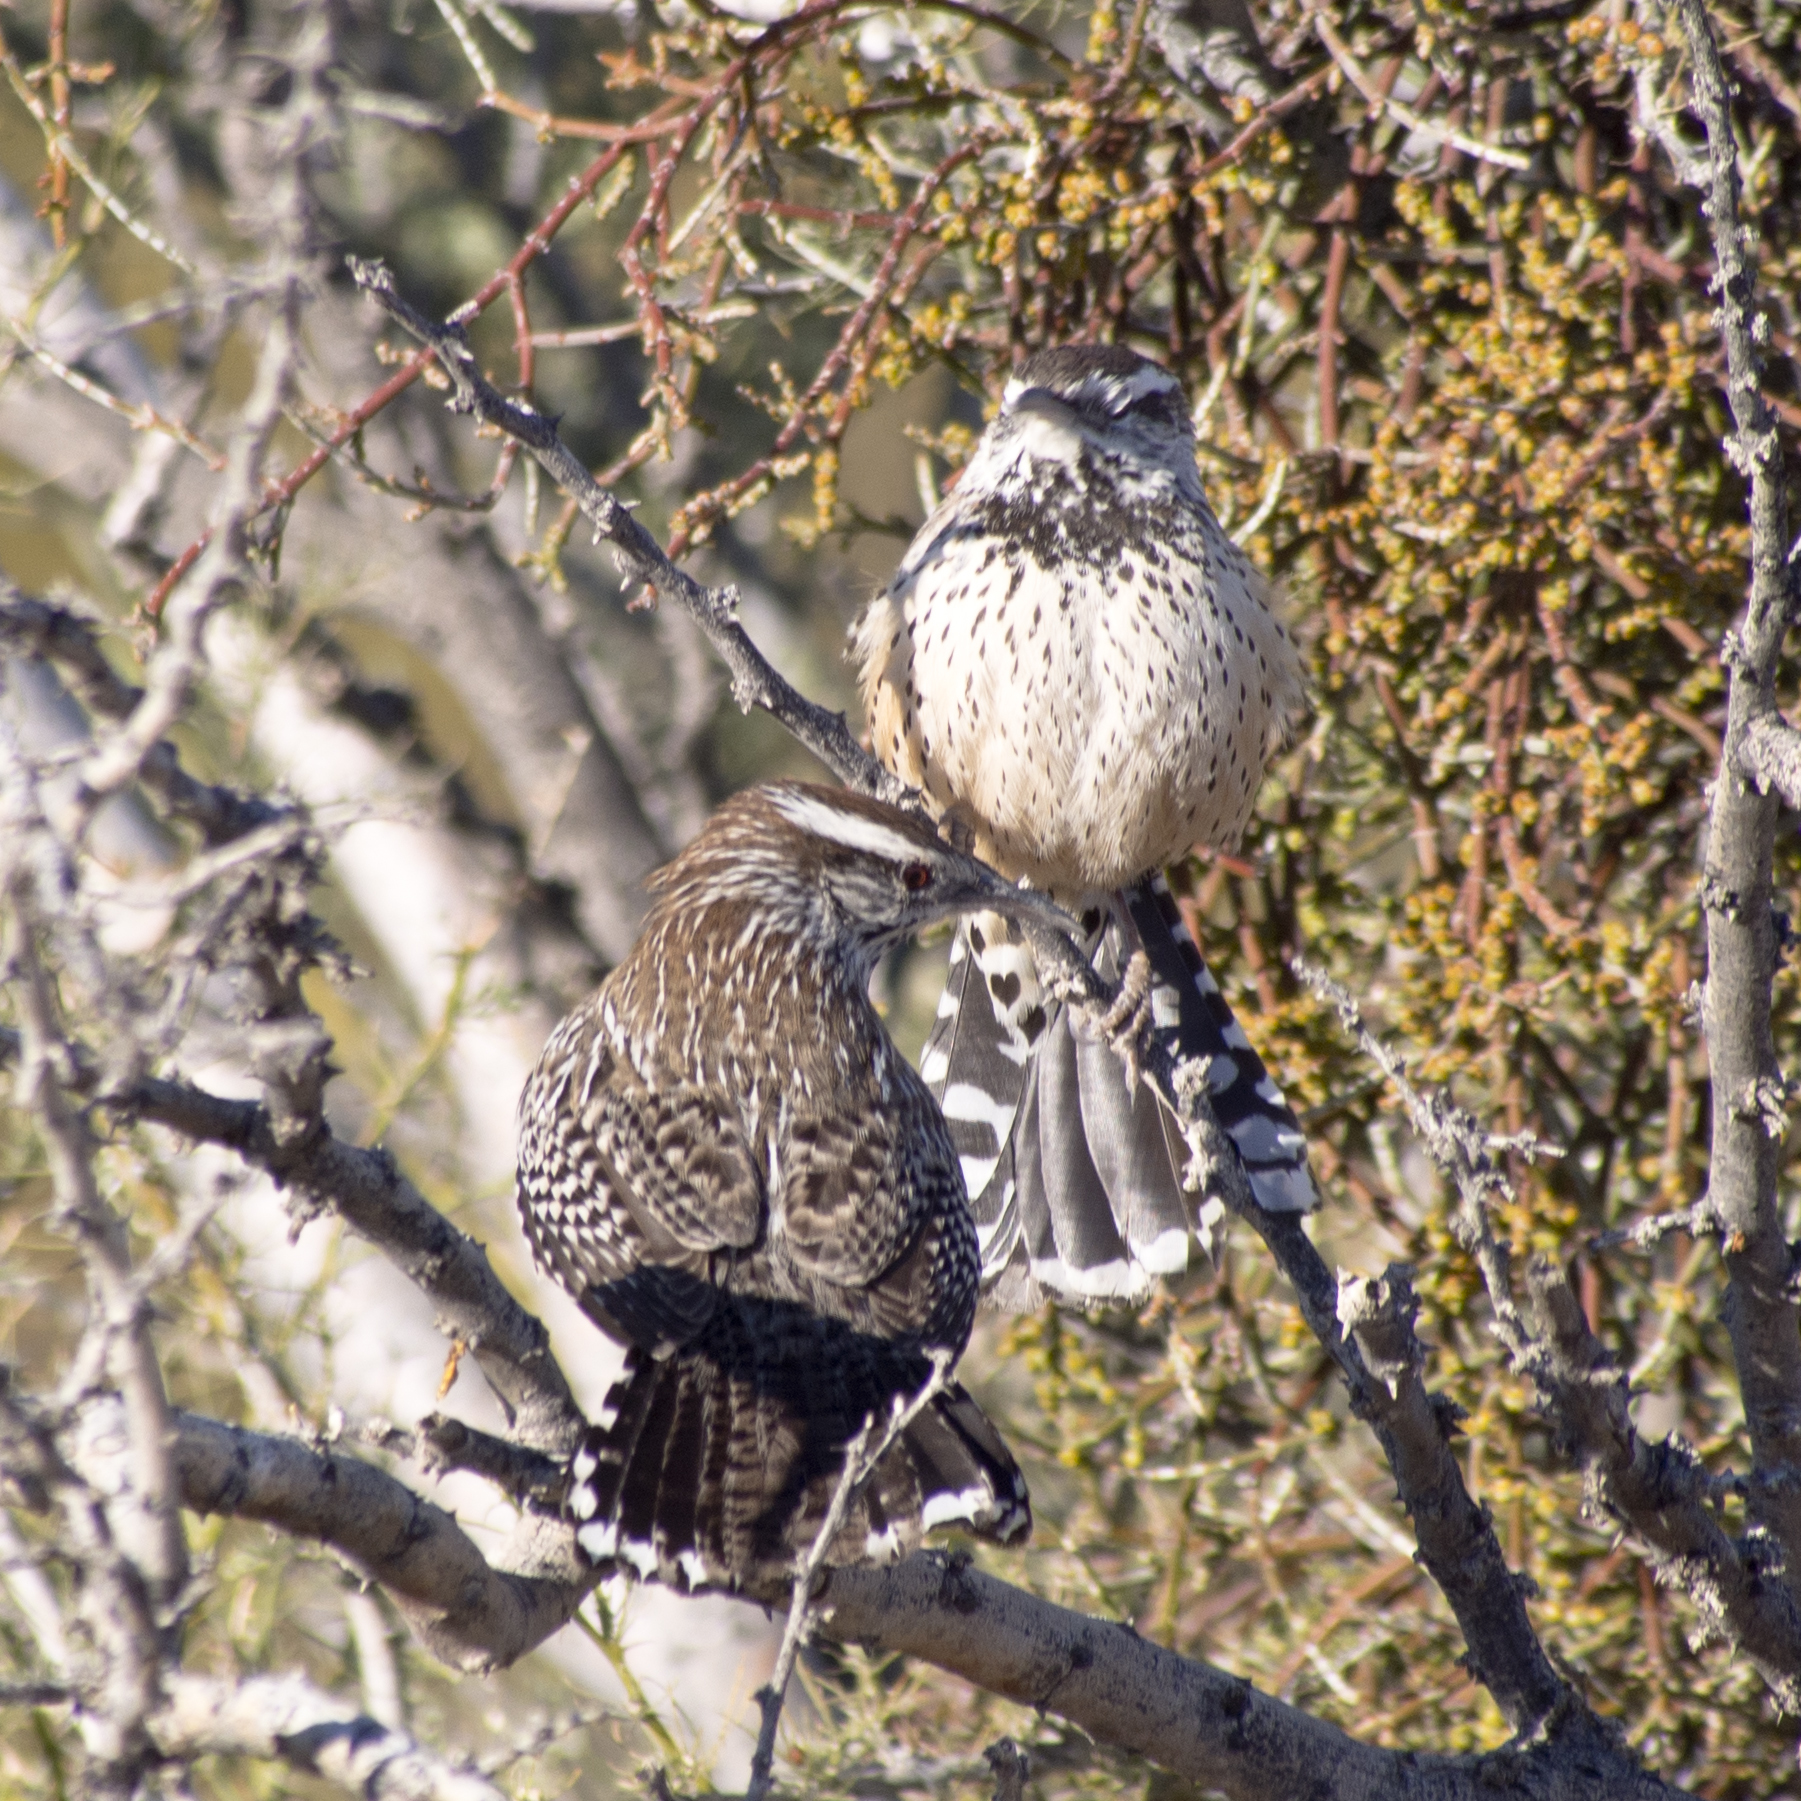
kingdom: Animalia
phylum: Chordata
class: Aves
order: Passeriformes
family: Troglodytidae
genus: Campylorhynchus
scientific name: Campylorhynchus brunneicapillus
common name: Cactus wren
